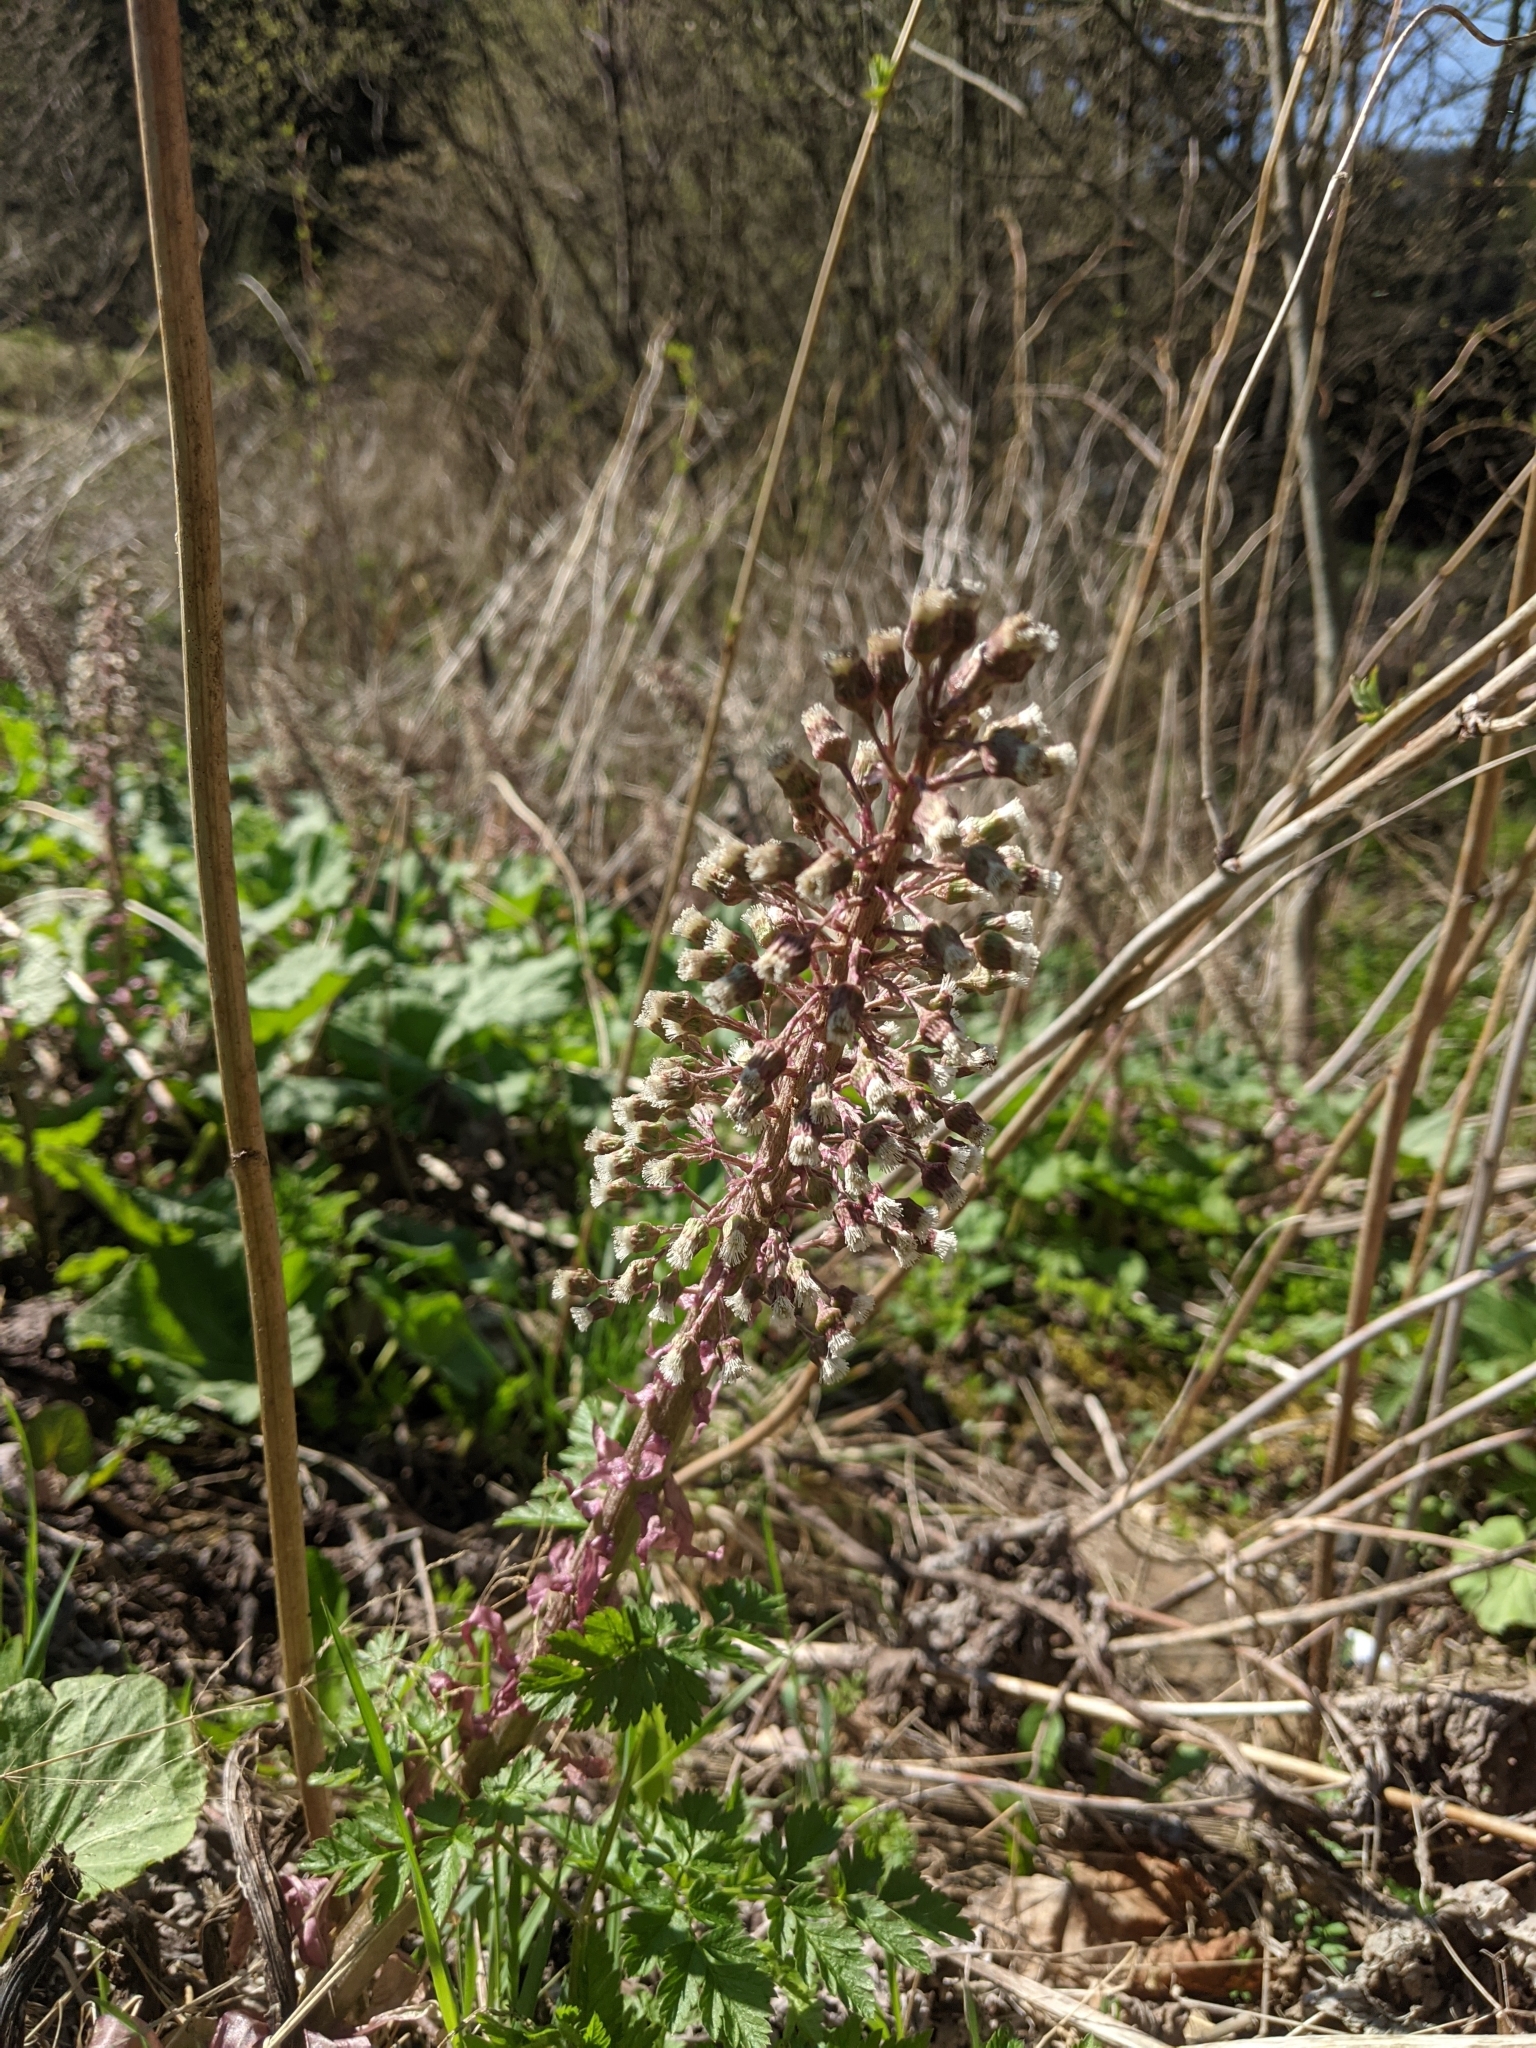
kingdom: Plantae
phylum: Tracheophyta
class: Magnoliopsida
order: Asterales
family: Asteraceae
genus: Petasites
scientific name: Petasites hybridus
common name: Butterbur
